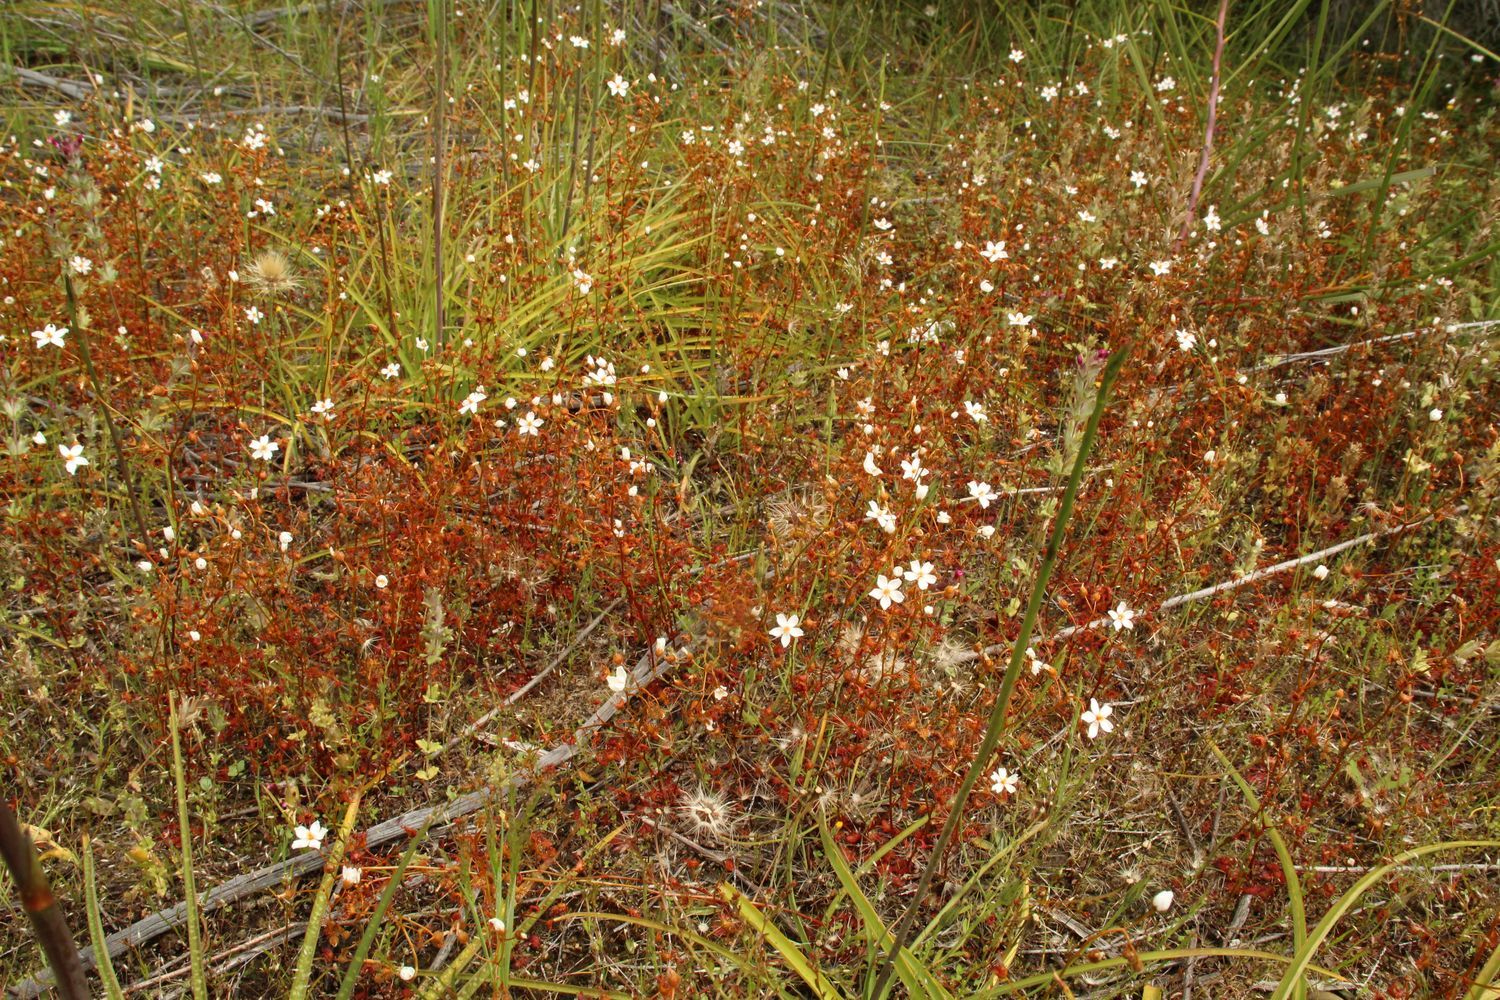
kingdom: Plantae
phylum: Tracheophyta
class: Magnoliopsida
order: Caryophyllales
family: Droseraceae
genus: Drosera
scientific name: Drosera yilgarnensis
